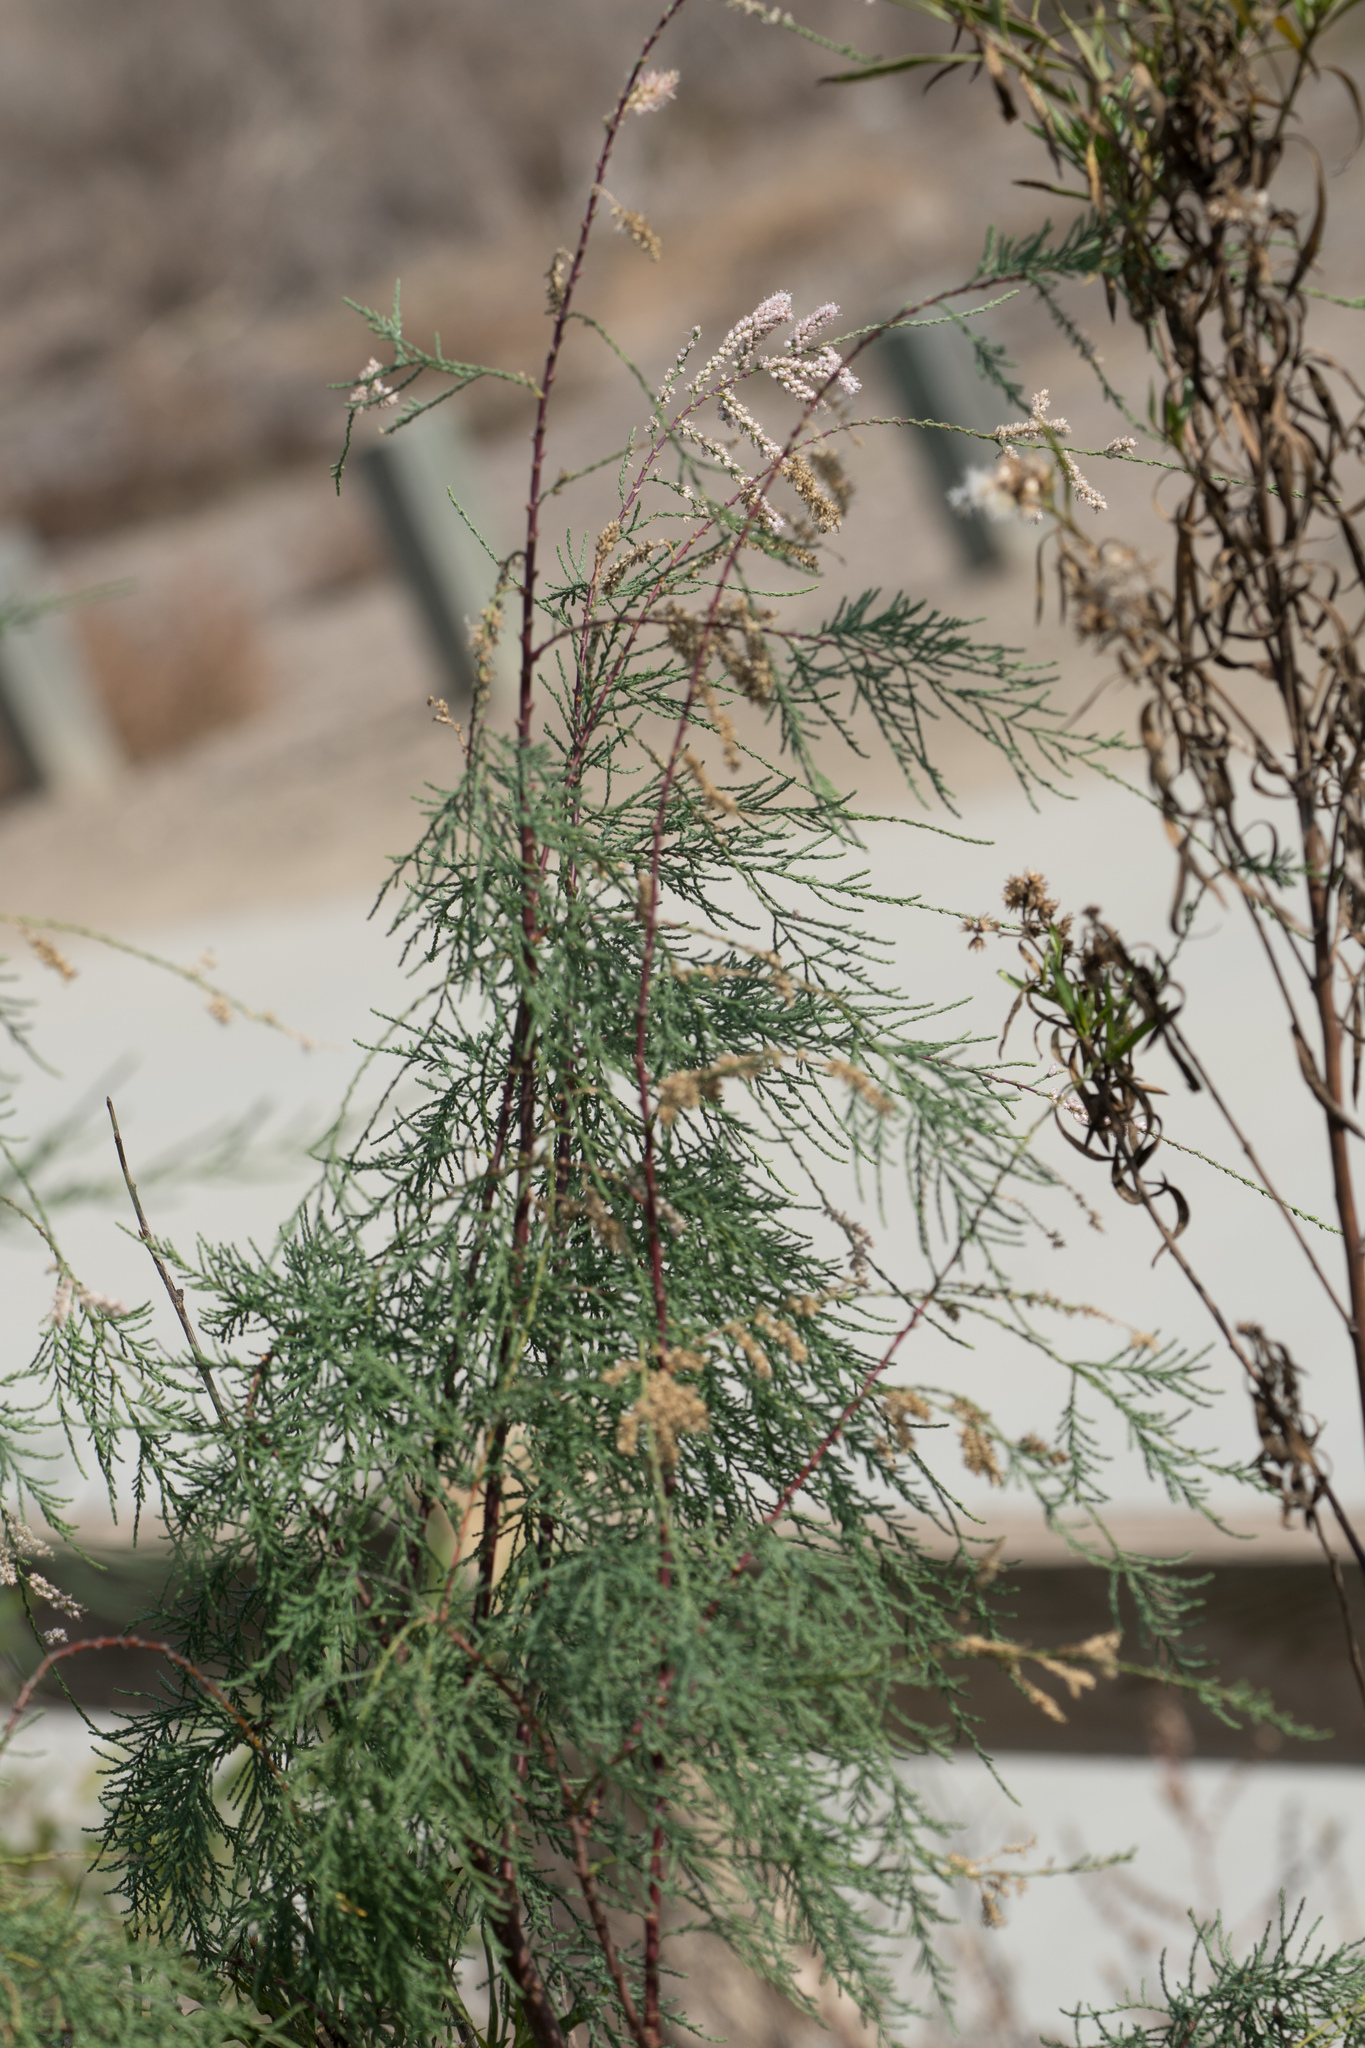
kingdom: Plantae
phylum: Tracheophyta
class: Magnoliopsida
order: Caryophyllales
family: Tamaricaceae
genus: Tamarix
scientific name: Tamarix
